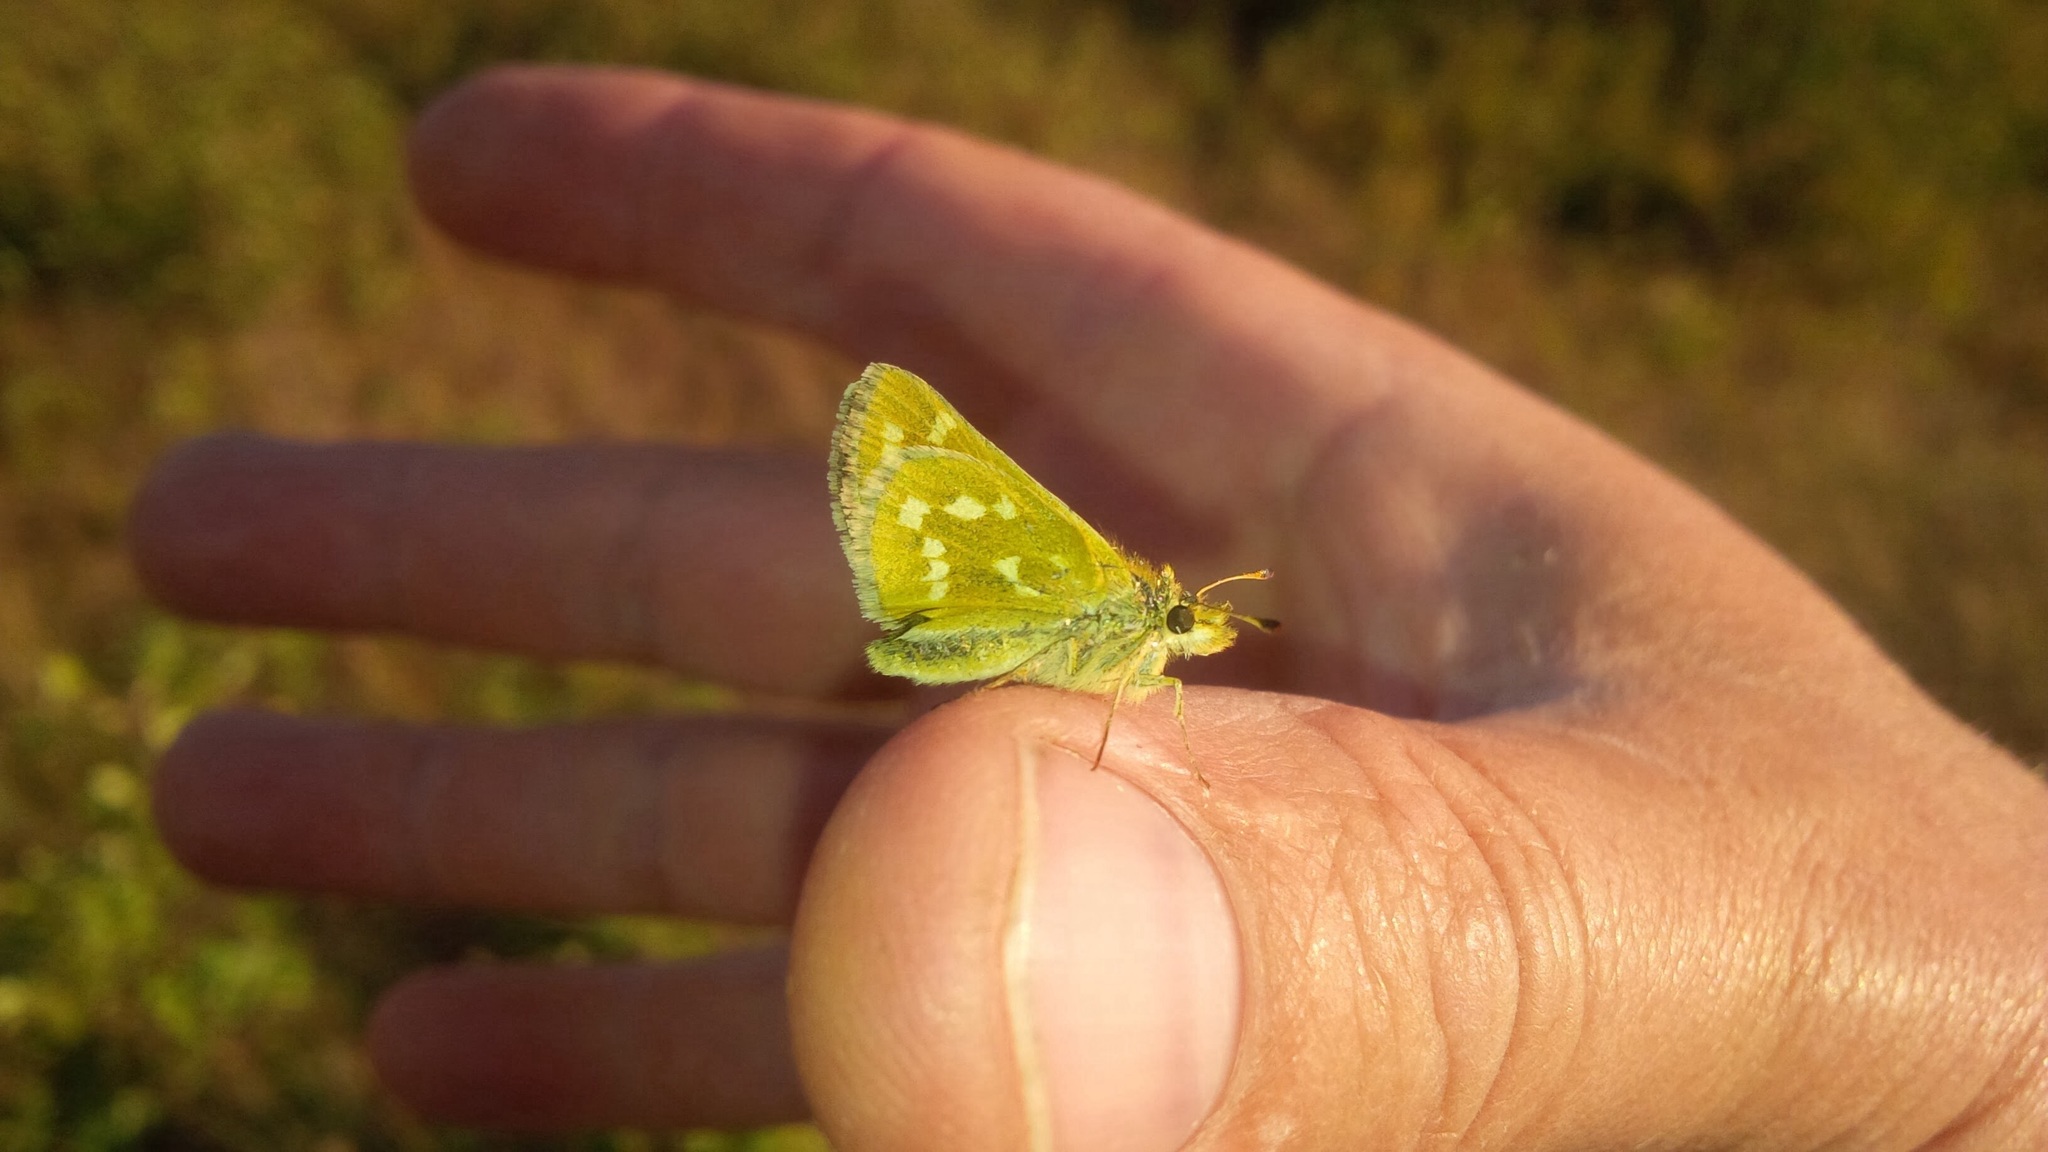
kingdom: Animalia
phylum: Arthropoda
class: Insecta
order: Lepidoptera
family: Hesperiidae
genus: Hesperia
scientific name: Hesperia comma
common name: Common branded skipper
